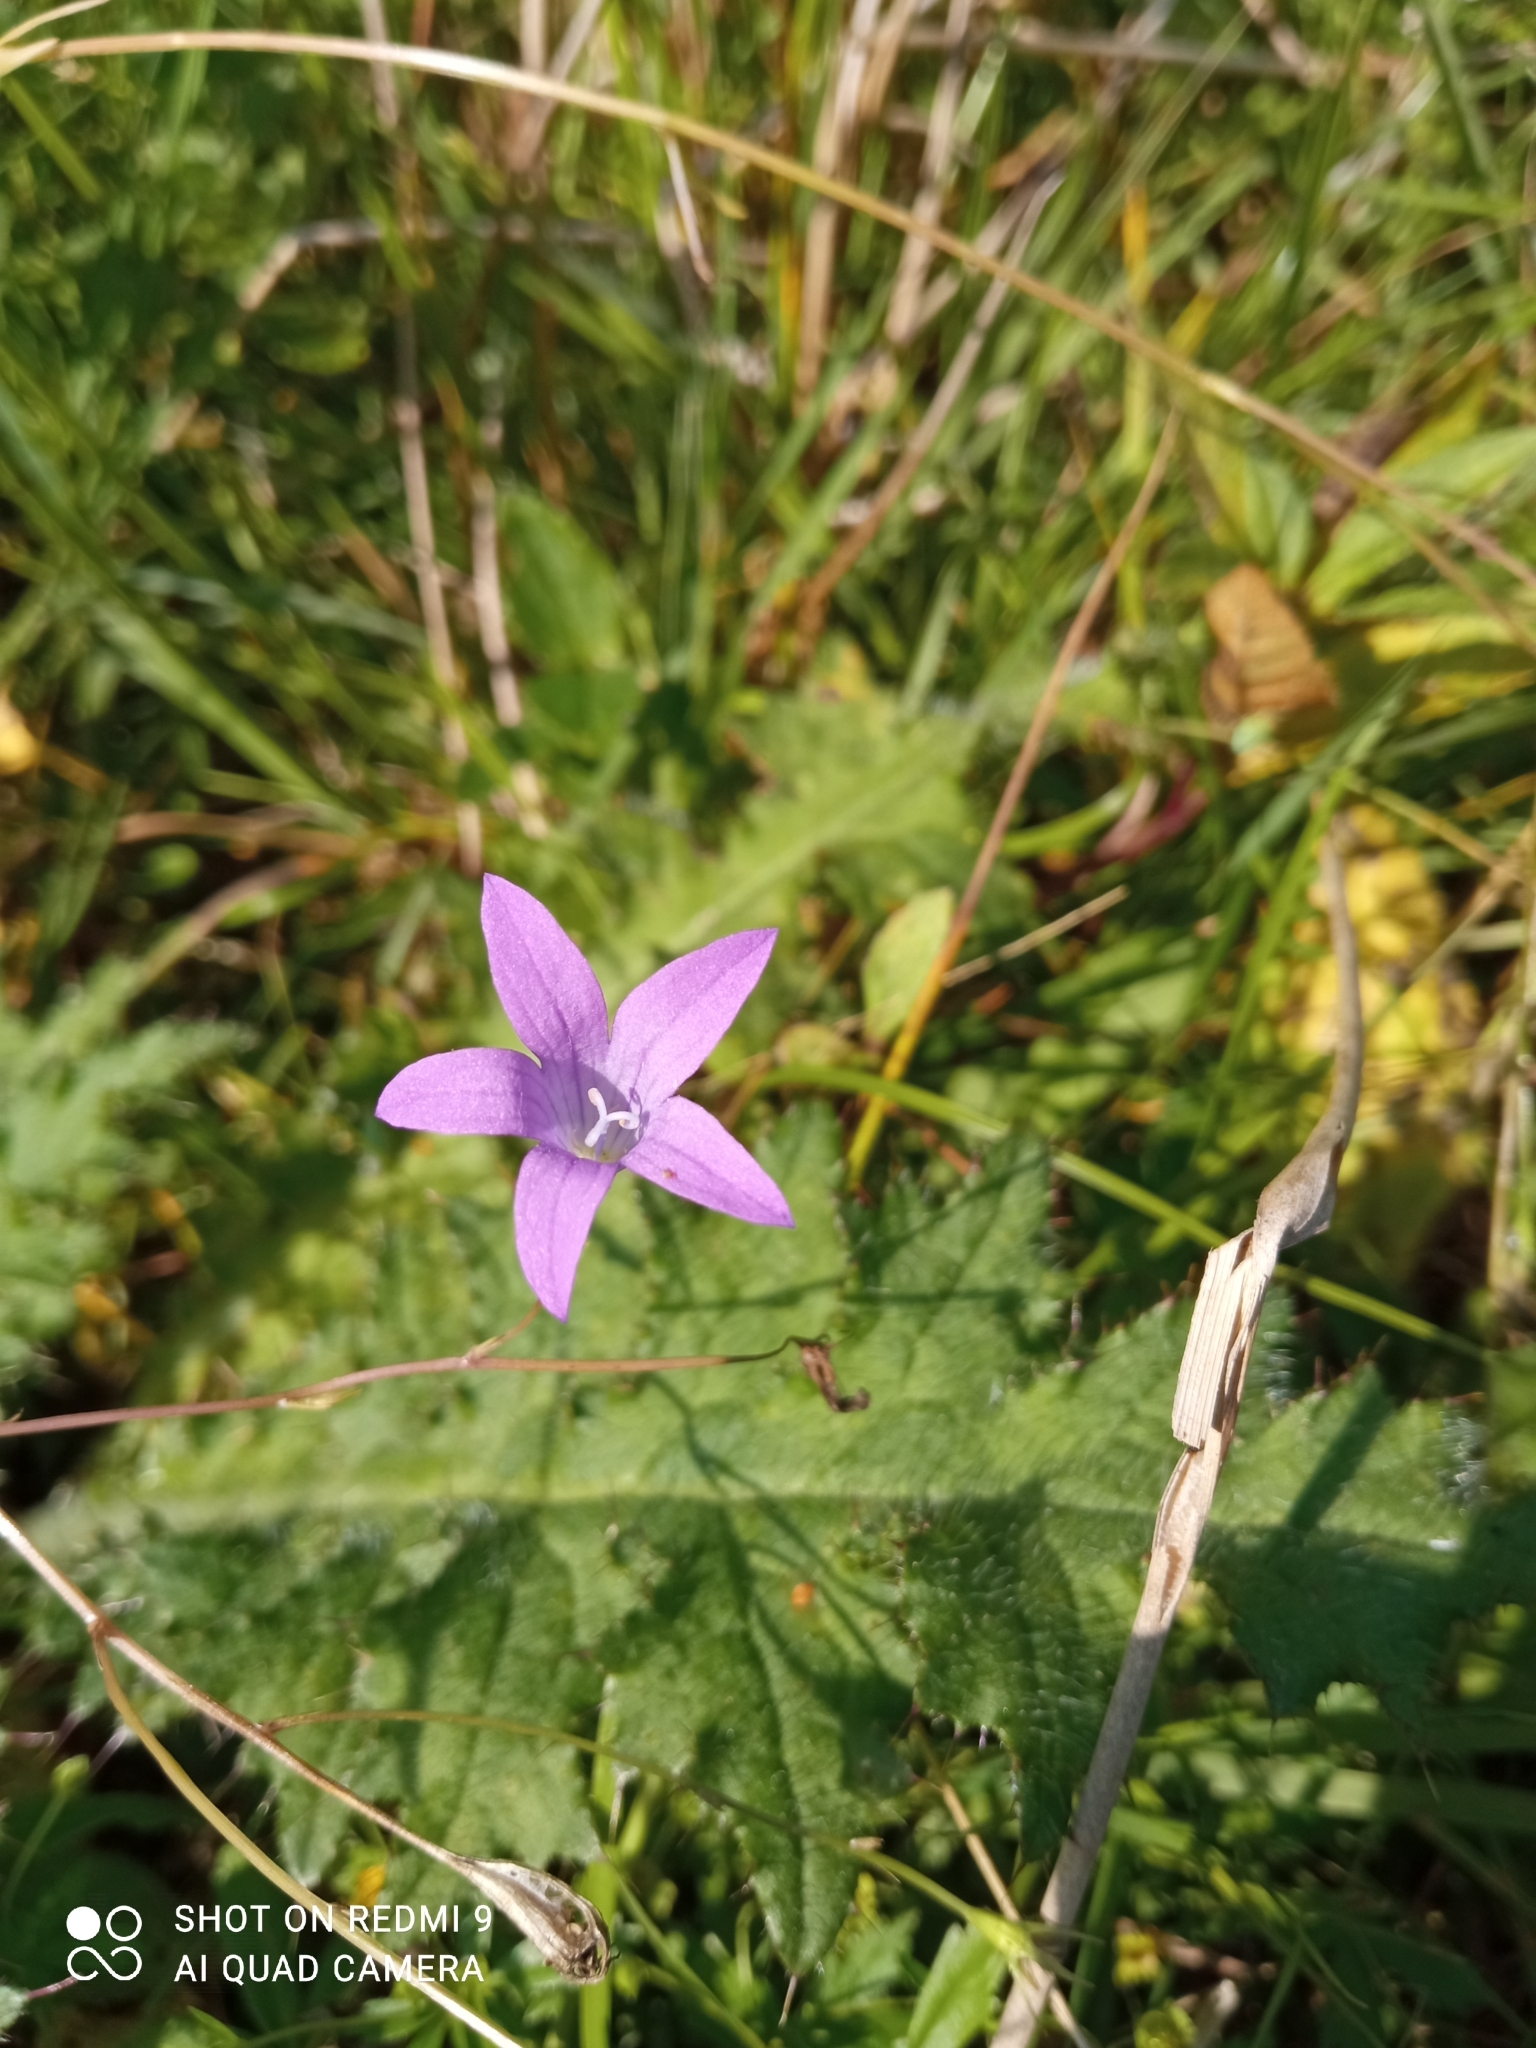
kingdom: Plantae
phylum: Tracheophyta
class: Magnoliopsida
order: Asterales
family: Campanulaceae
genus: Campanula
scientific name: Campanula patula
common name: Spreading bellflower
